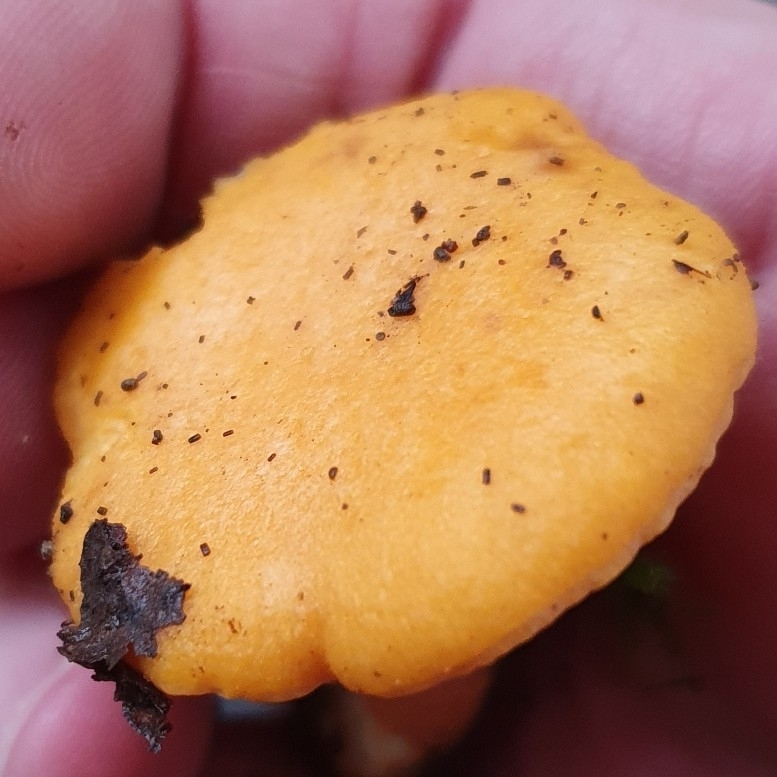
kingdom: Fungi
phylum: Basidiomycota
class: Agaricomycetes
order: Cantharellales
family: Hydnaceae
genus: Cantharellus
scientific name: Cantharellus cibarius
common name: Chanterelle
